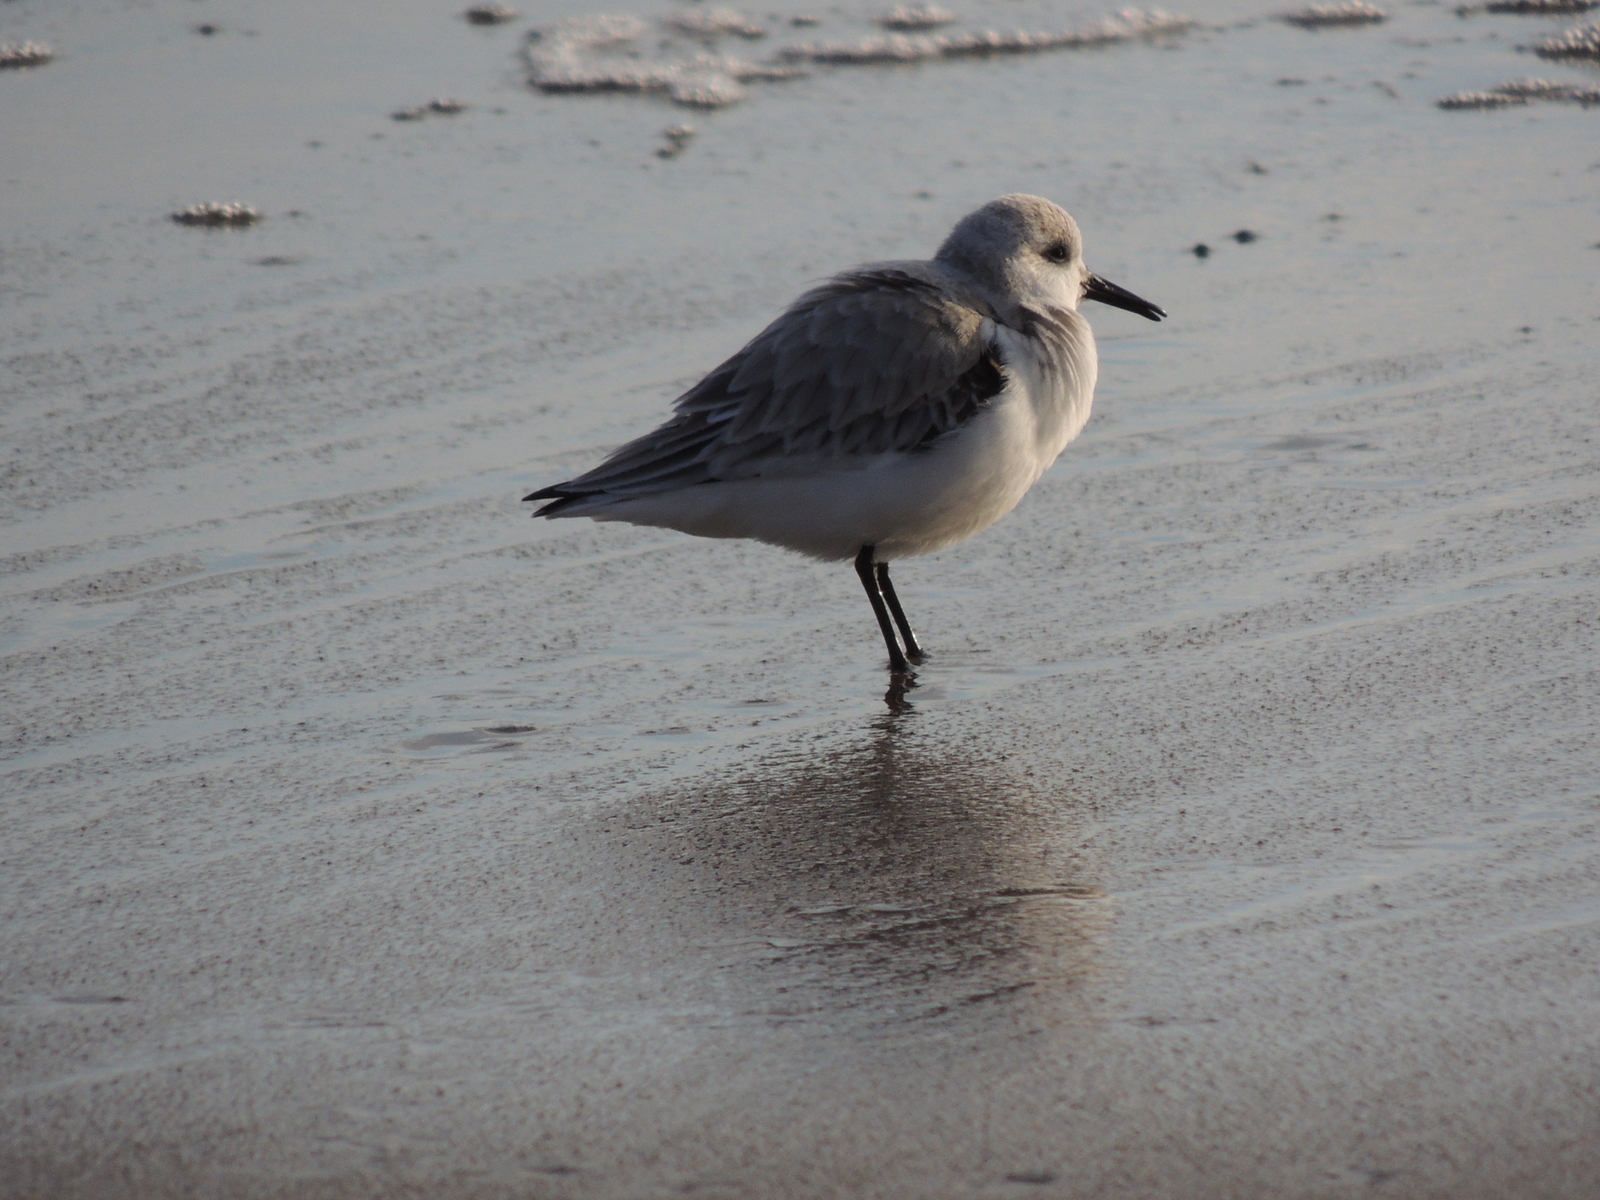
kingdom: Animalia
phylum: Chordata
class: Aves
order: Charadriiformes
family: Scolopacidae
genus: Calidris
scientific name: Calidris alba
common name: Sanderling
